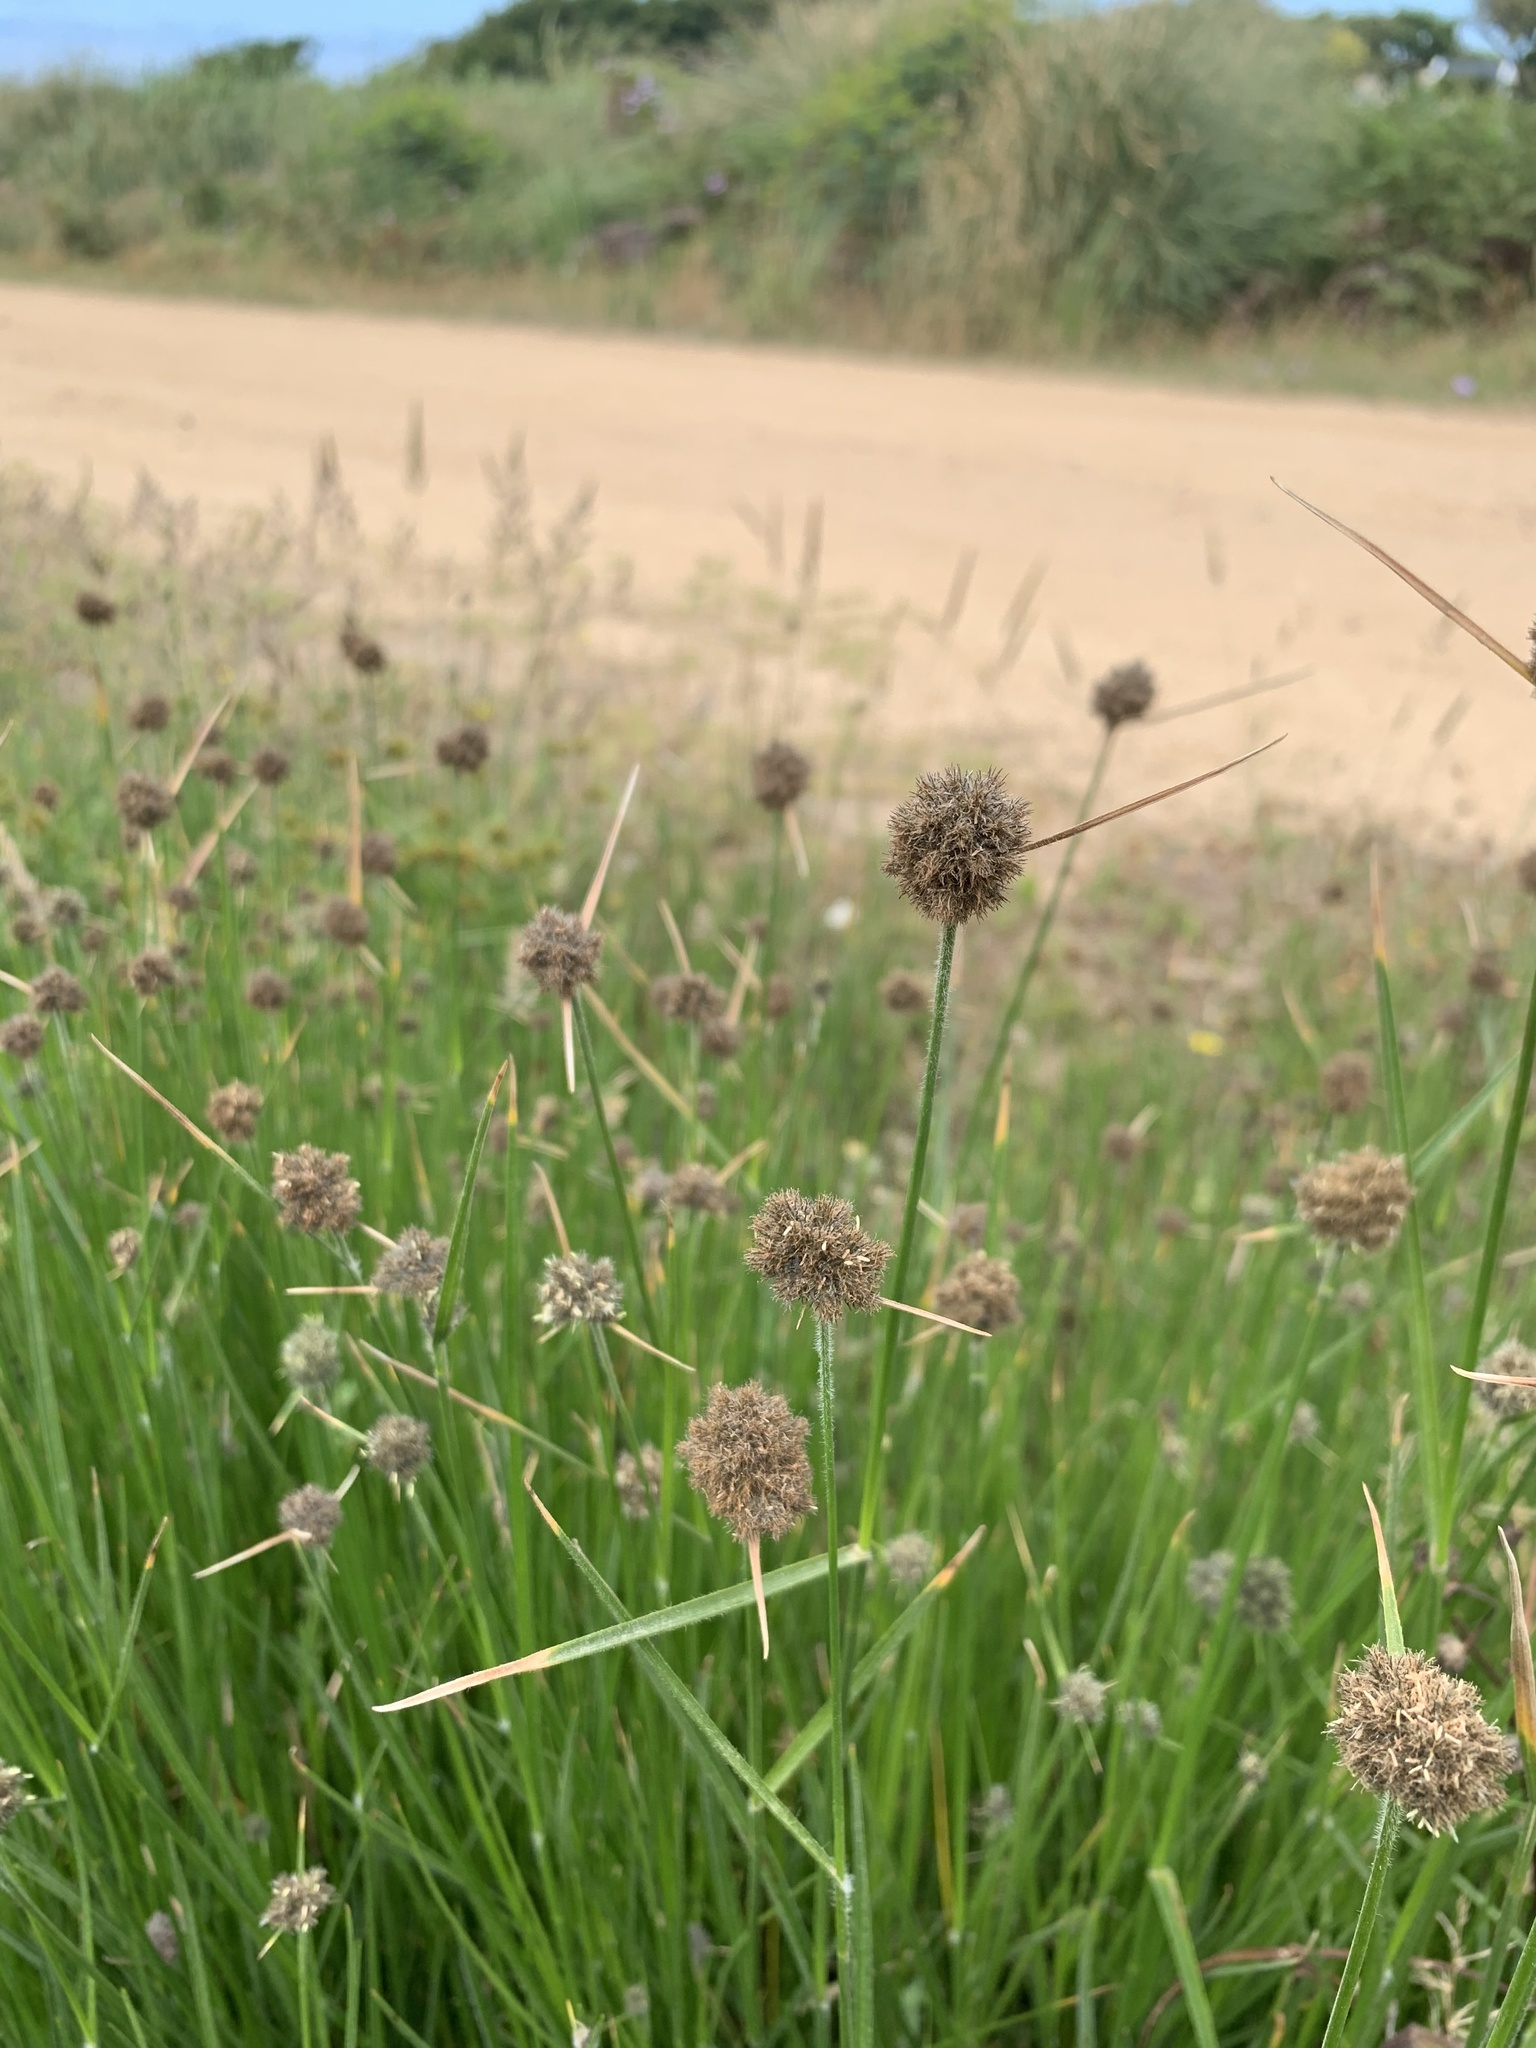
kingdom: Plantae
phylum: Tracheophyta
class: Liliopsida
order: Poales
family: Cyperaceae
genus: Fuirena
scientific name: Fuirena hirsuta
